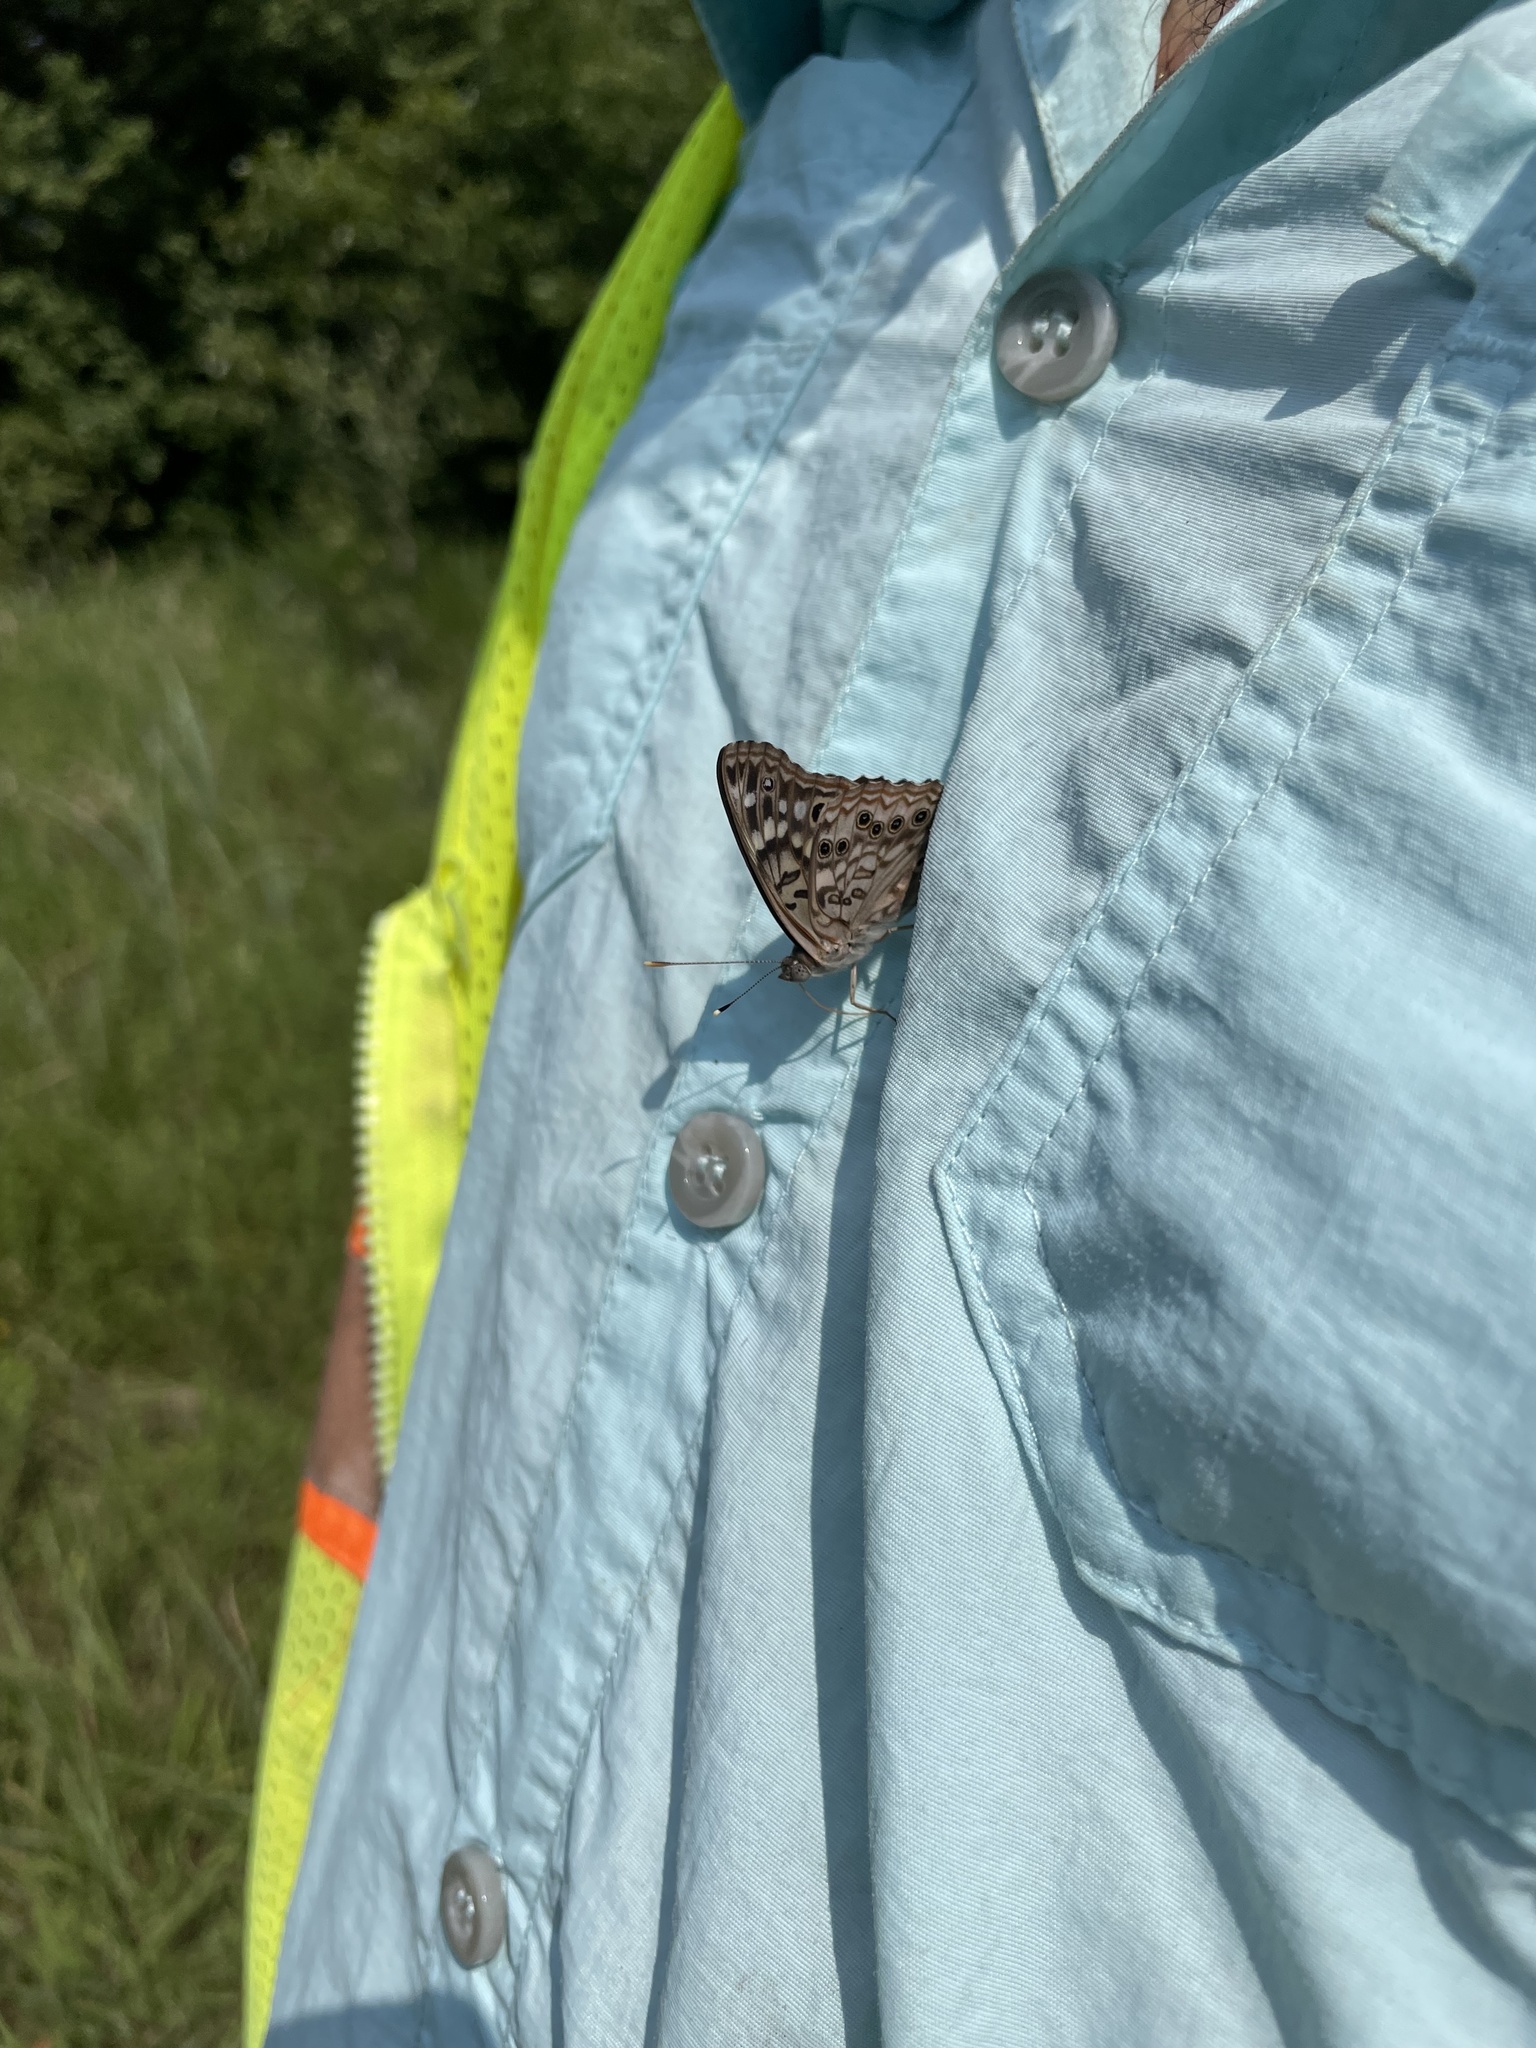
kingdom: Animalia
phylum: Arthropoda
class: Insecta
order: Lepidoptera
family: Nymphalidae
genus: Asterocampa
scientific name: Asterocampa celtis
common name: Hackberry emperor
